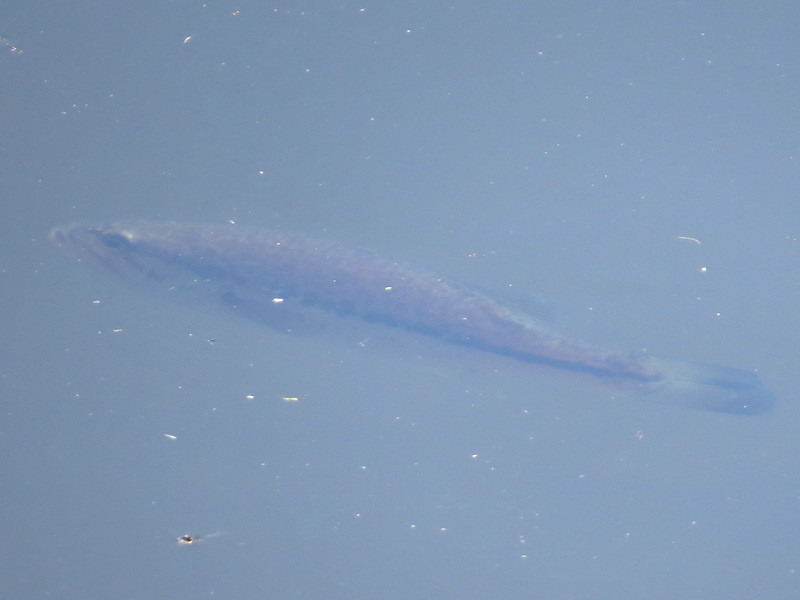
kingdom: Animalia
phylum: Chordata
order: Perciformes
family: Centrarchidae
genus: Micropterus
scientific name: Micropterus
